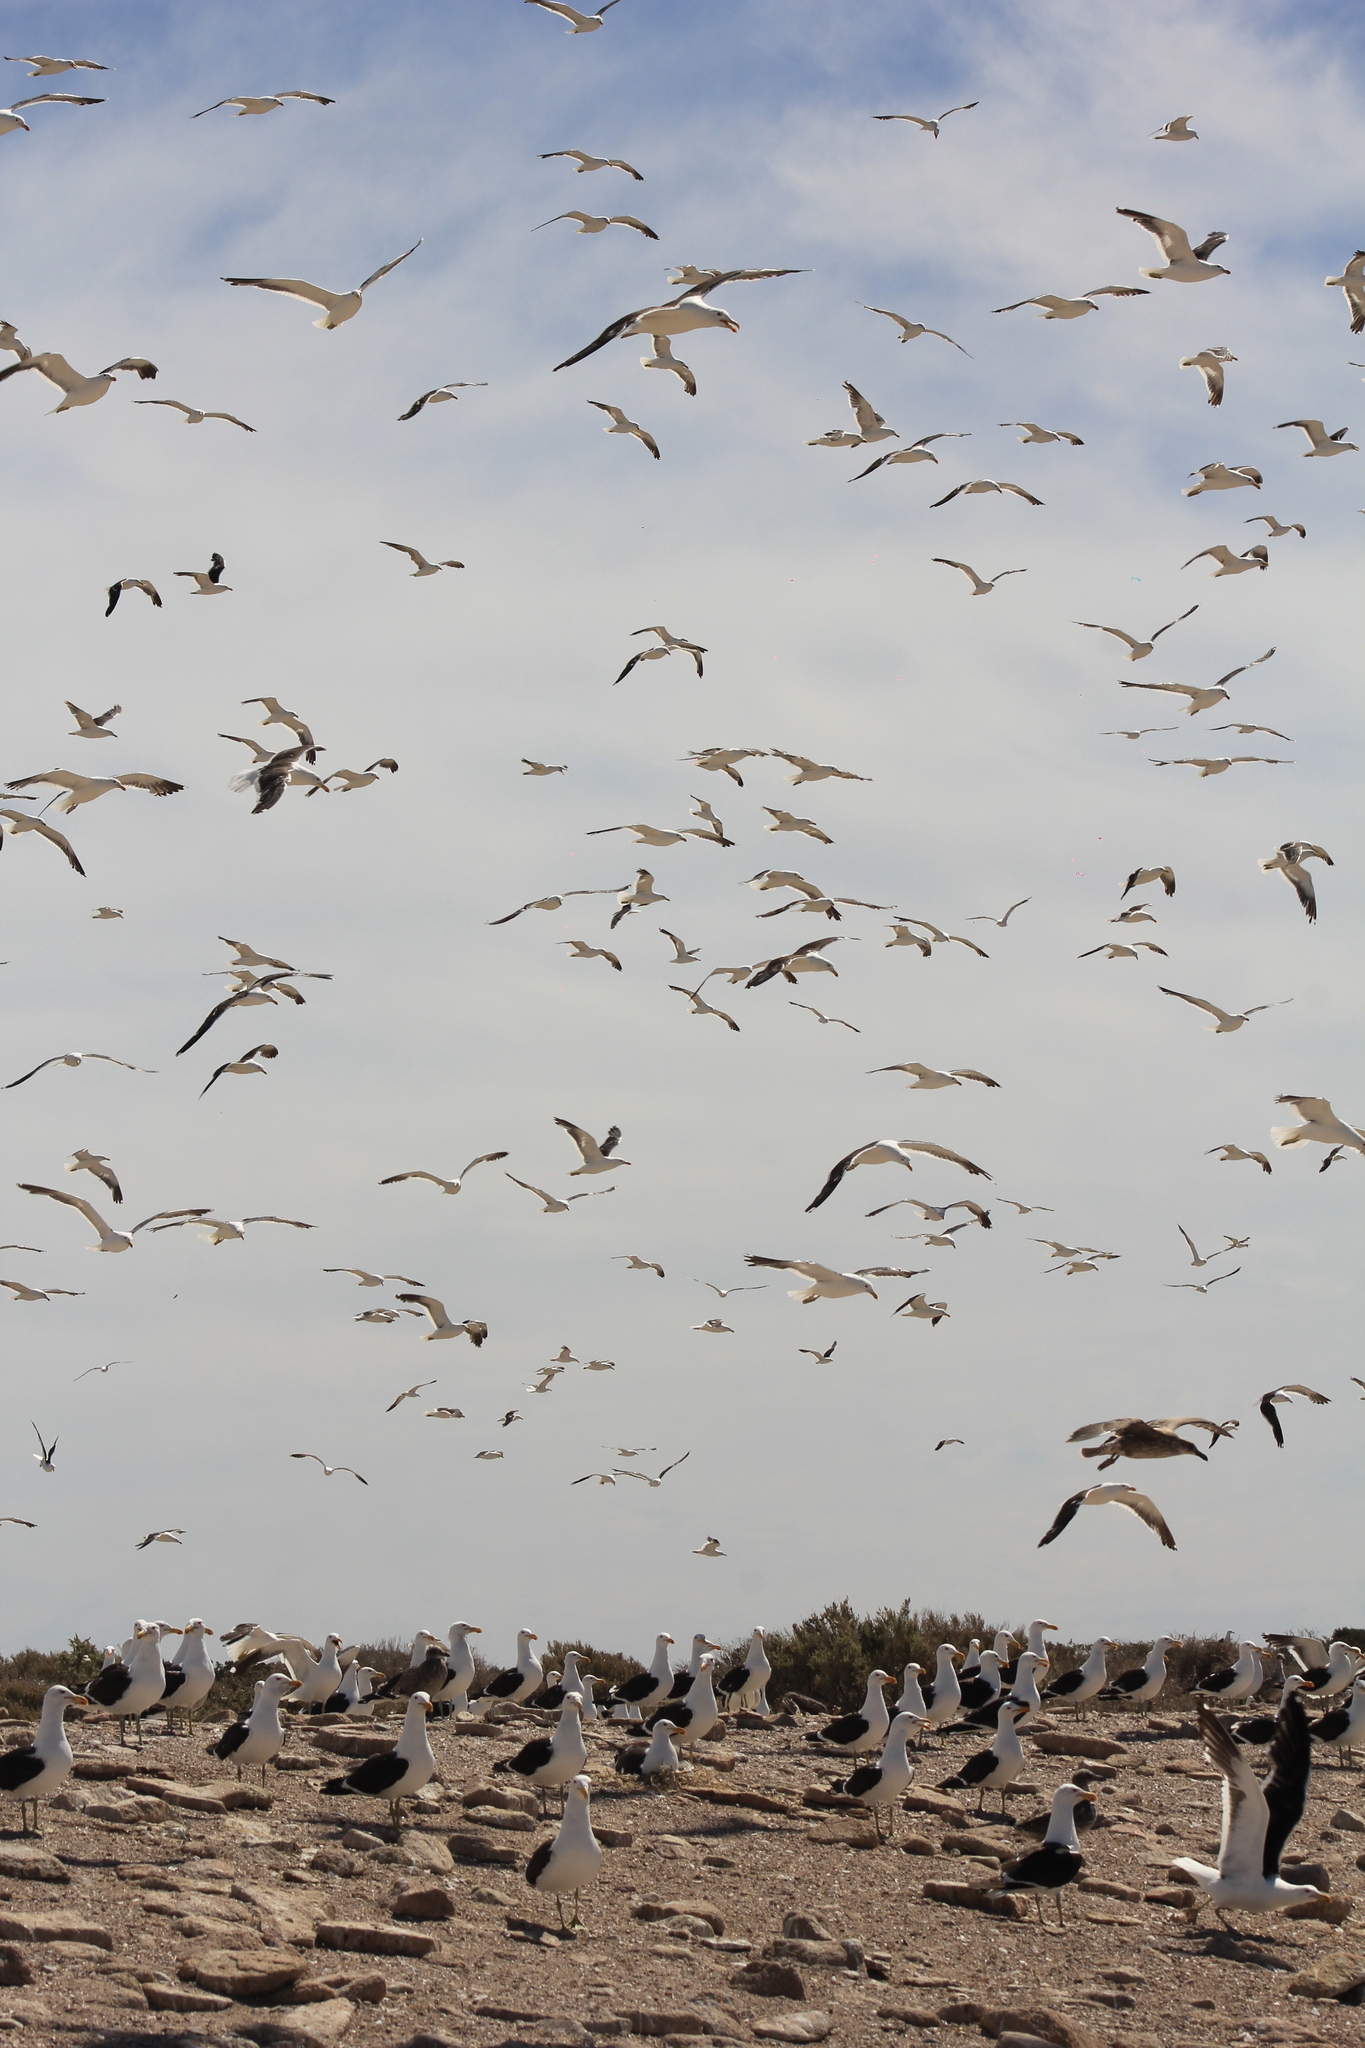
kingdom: Animalia
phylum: Chordata
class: Aves
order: Charadriiformes
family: Laridae
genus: Larus
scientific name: Larus dominicanus
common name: Kelp gull
